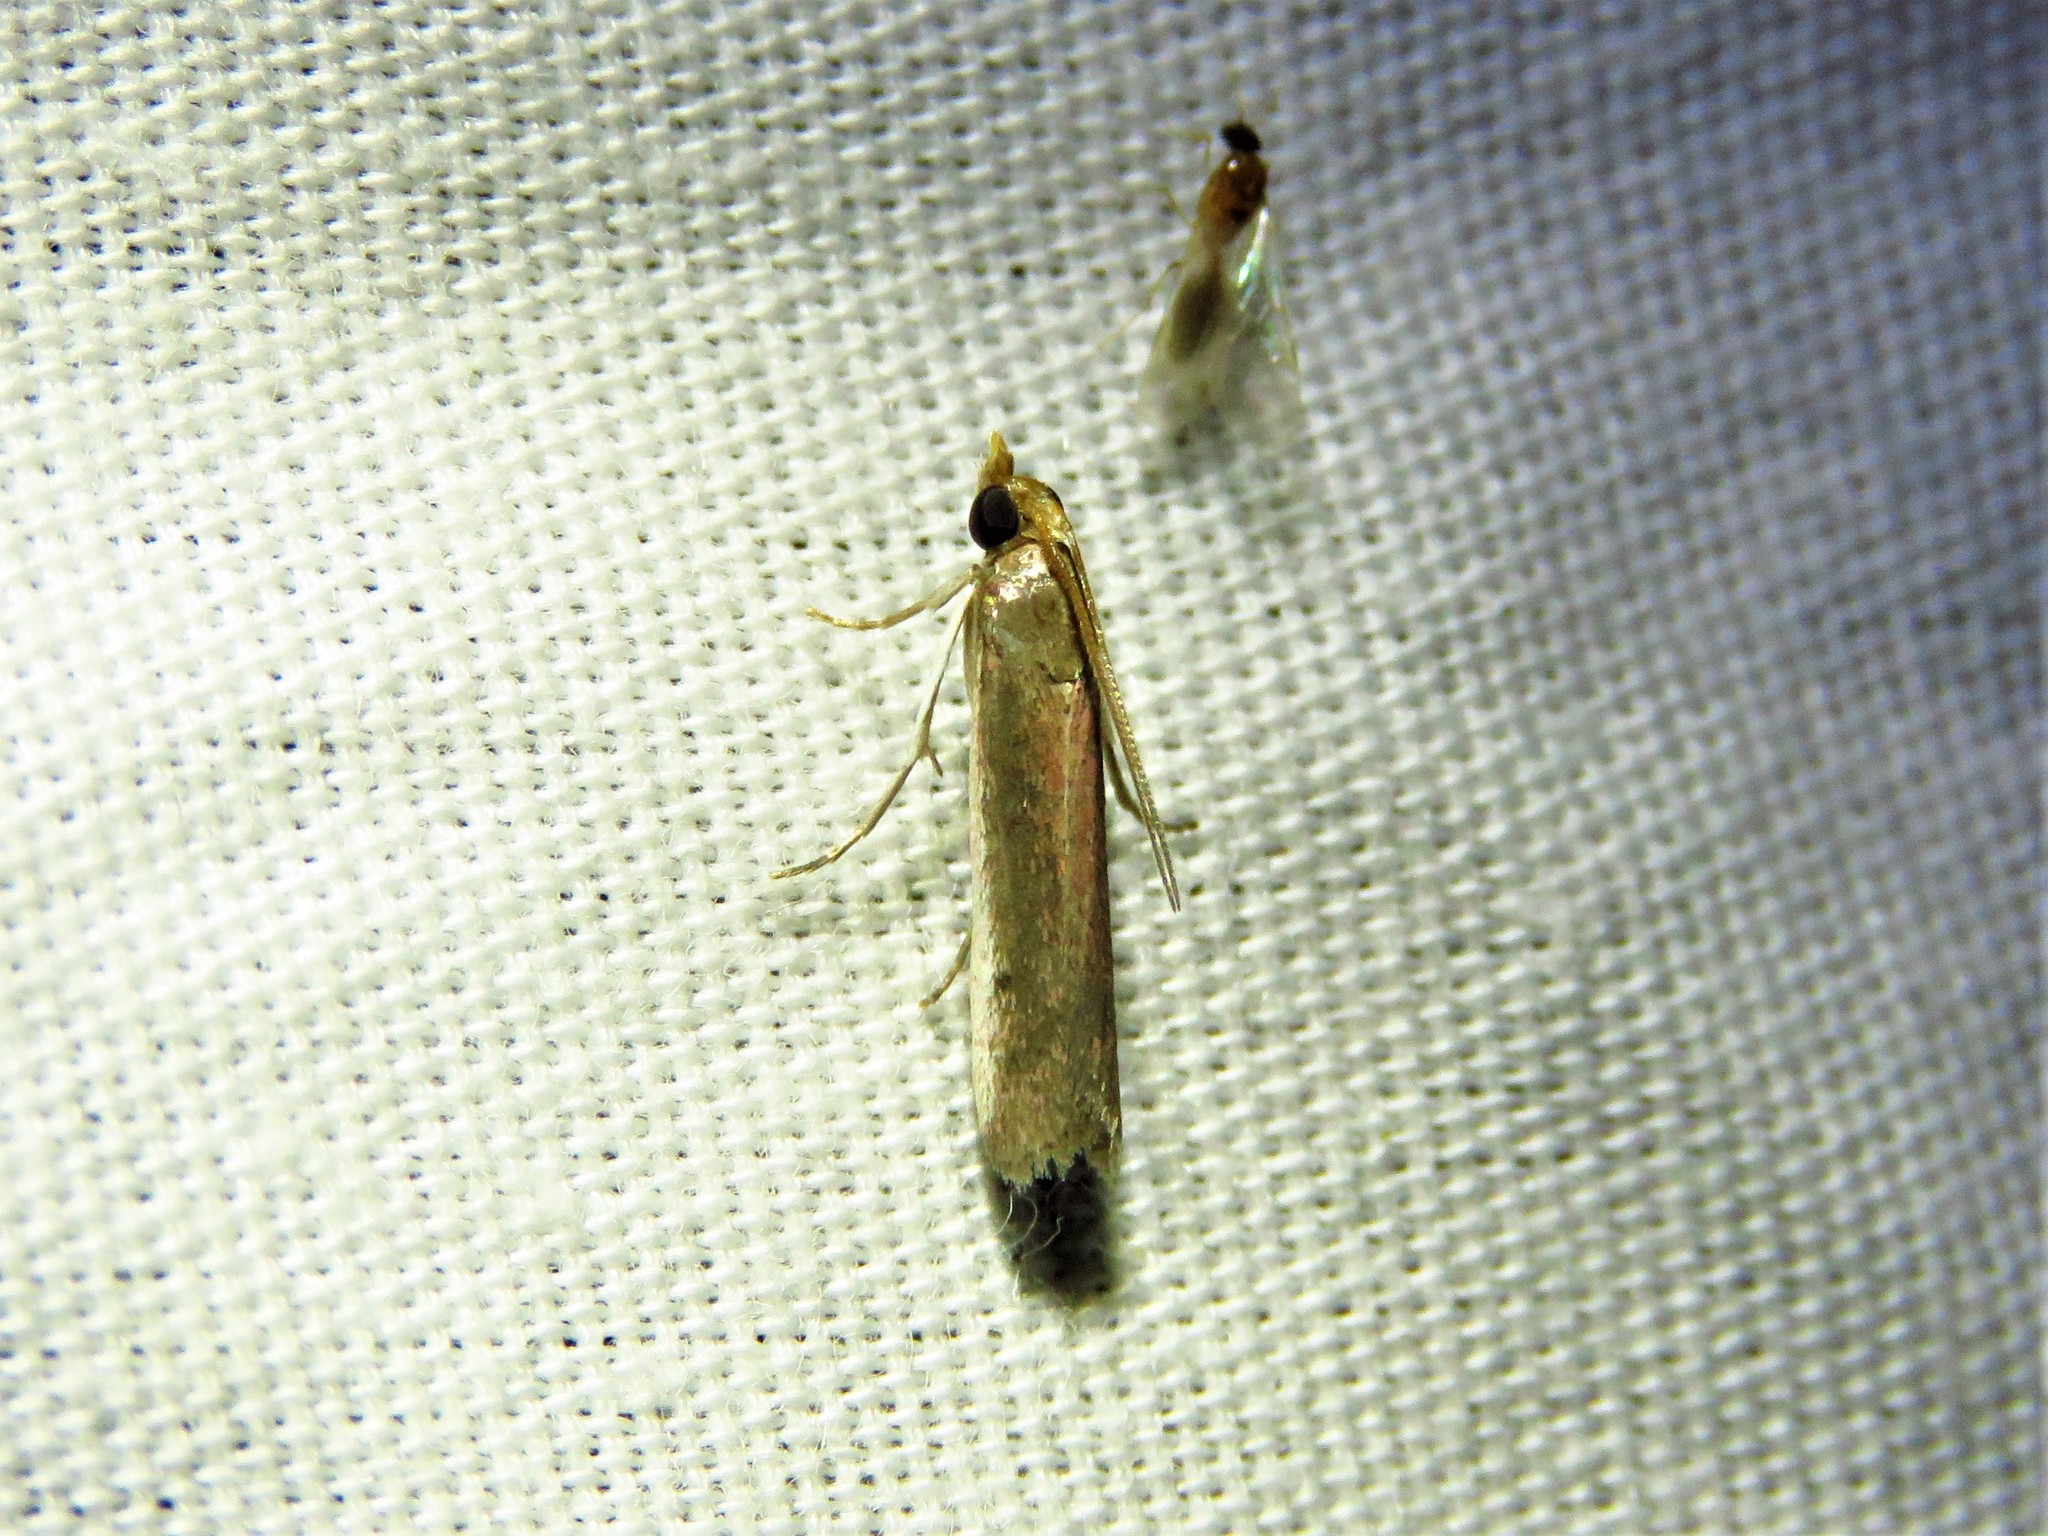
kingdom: Animalia
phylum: Arthropoda
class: Insecta
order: Lepidoptera
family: Pyralidae
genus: Atascosa
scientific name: Atascosa glareosella
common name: Rosy atascosa moth
